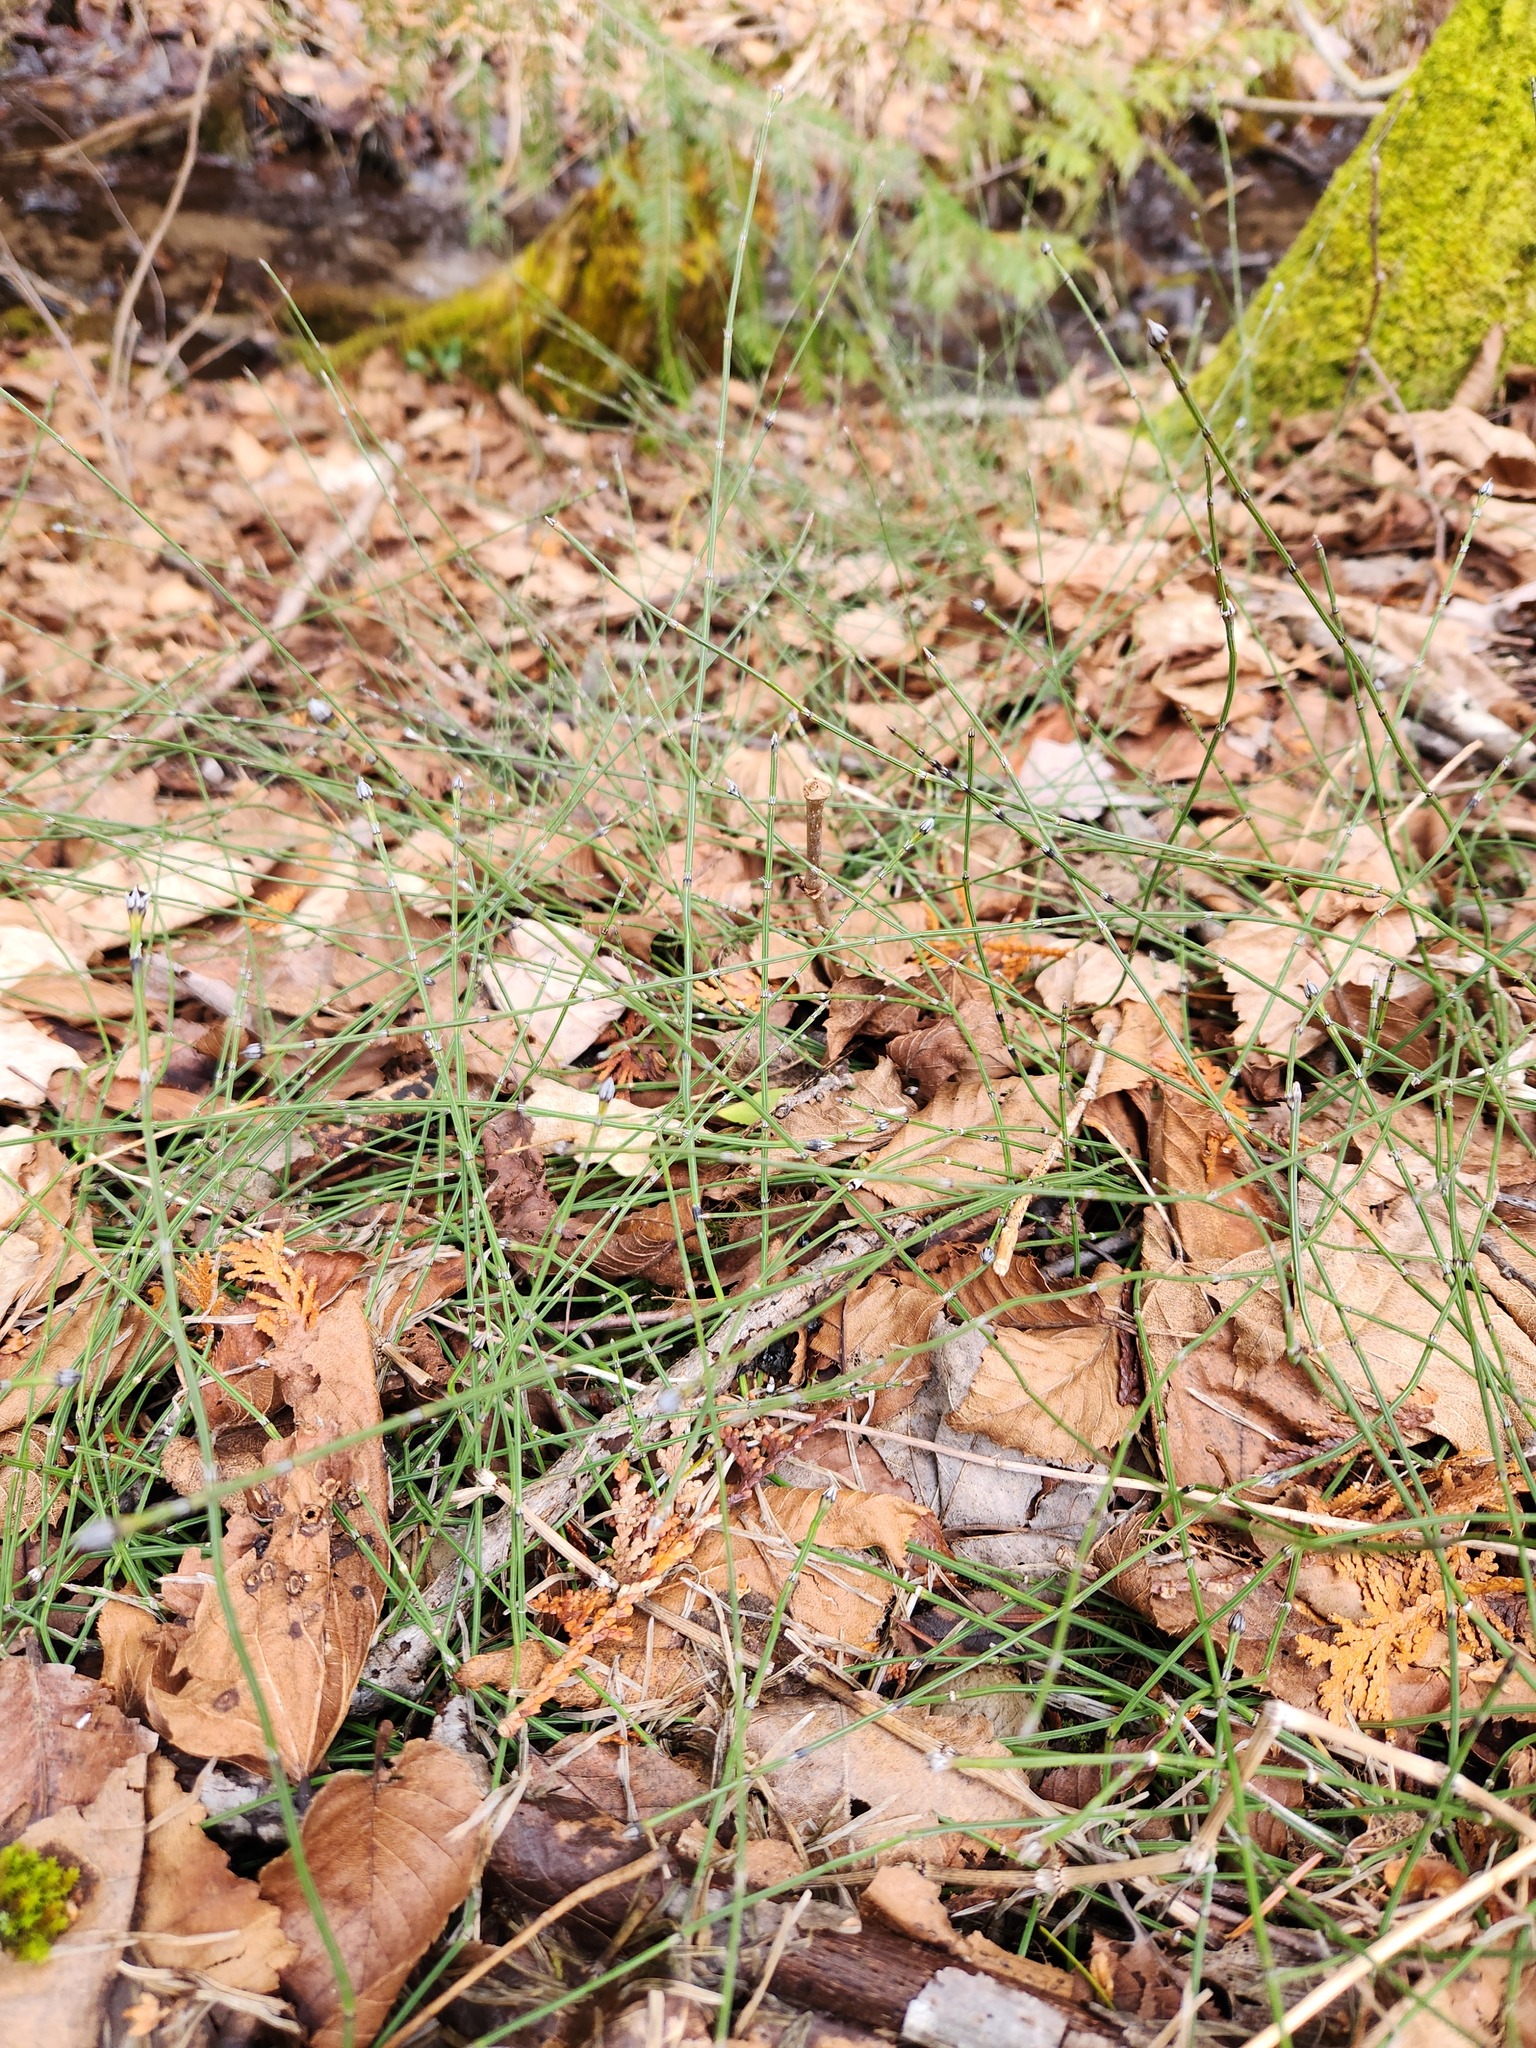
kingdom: Plantae
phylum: Tracheophyta
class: Polypodiopsida
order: Equisetales
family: Equisetaceae
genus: Equisetum
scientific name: Equisetum variegatum
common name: Variegated horsetail
